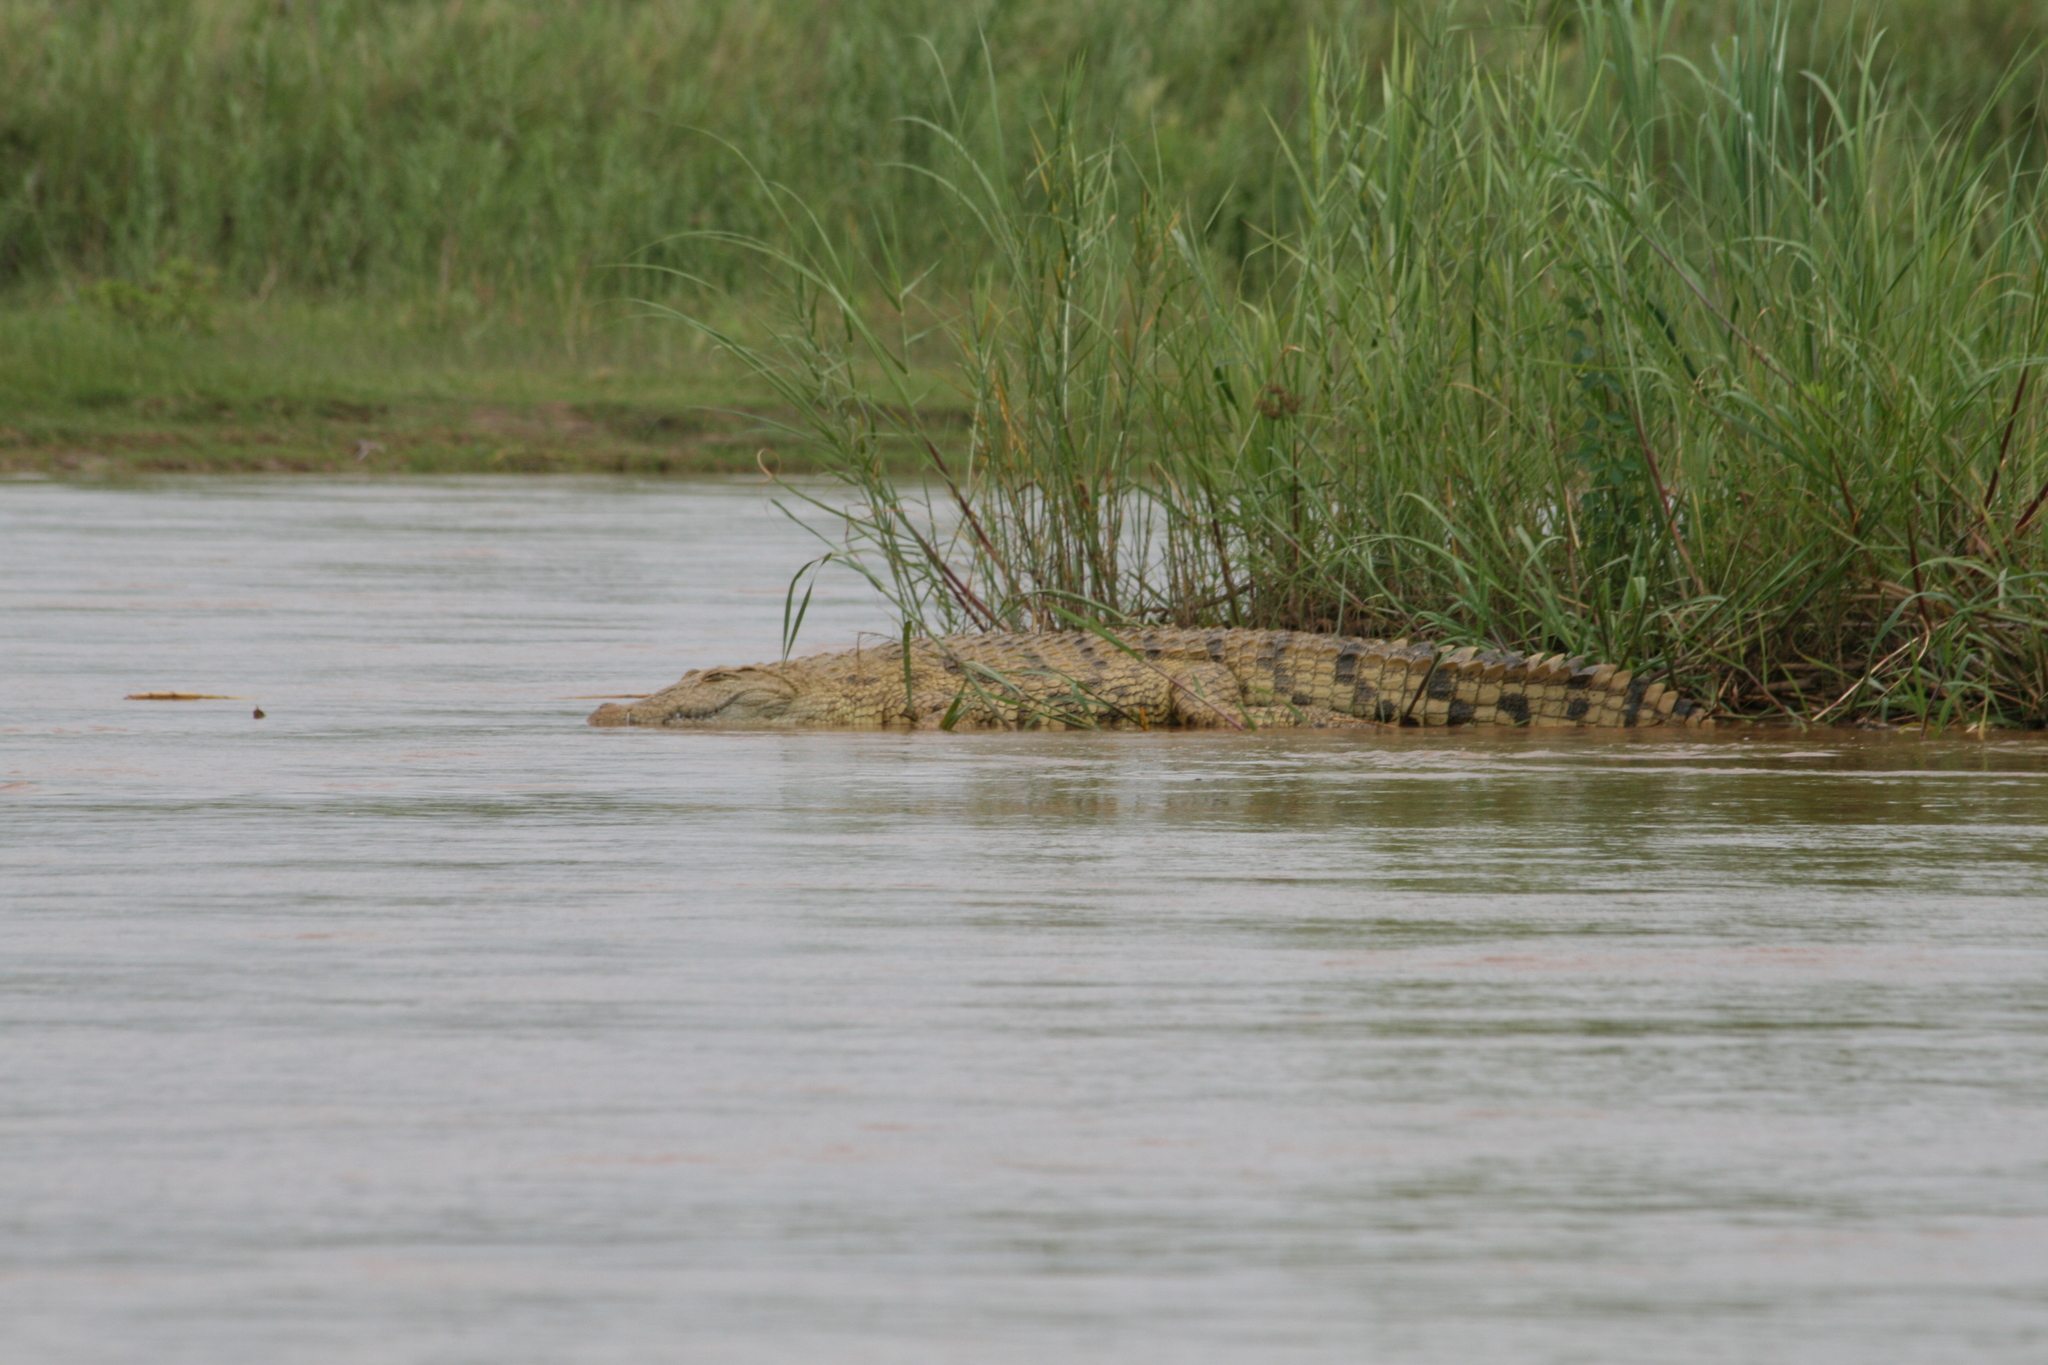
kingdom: Animalia
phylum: Chordata
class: Crocodylia
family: Crocodylidae
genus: Crocodylus
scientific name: Crocodylus niloticus
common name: Nile crocodile
